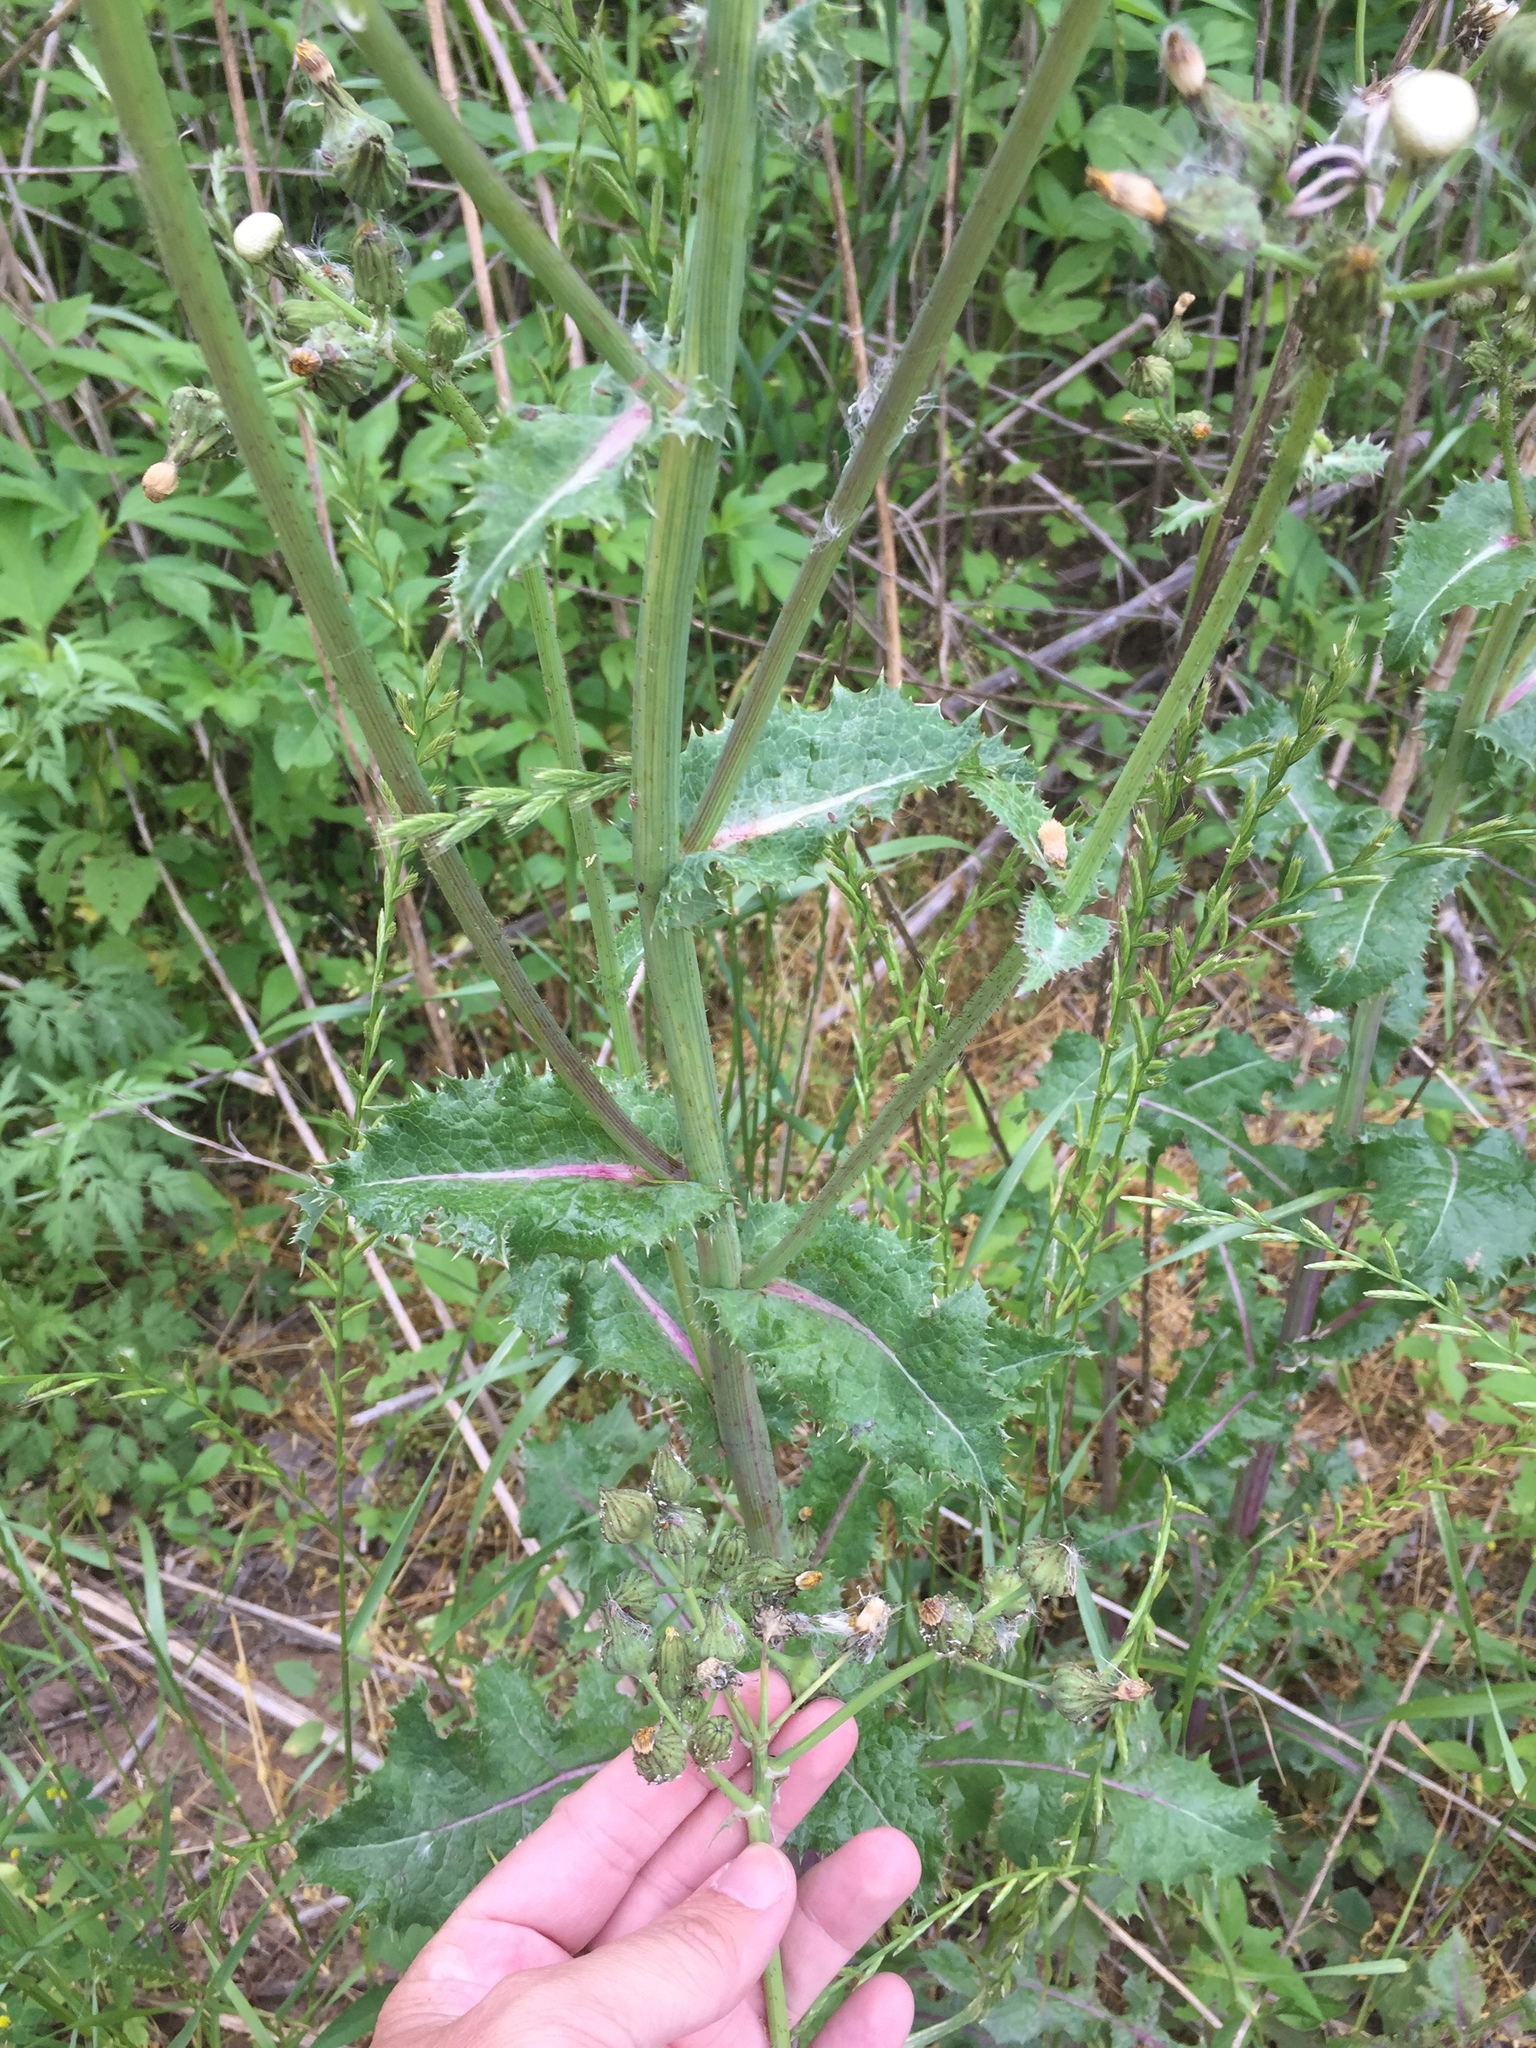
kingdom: Plantae
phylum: Tracheophyta
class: Magnoliopsida
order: Asterales
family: Asteraceae
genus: Sonchus
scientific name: Sonchus asper
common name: Prickly sow-thistle
